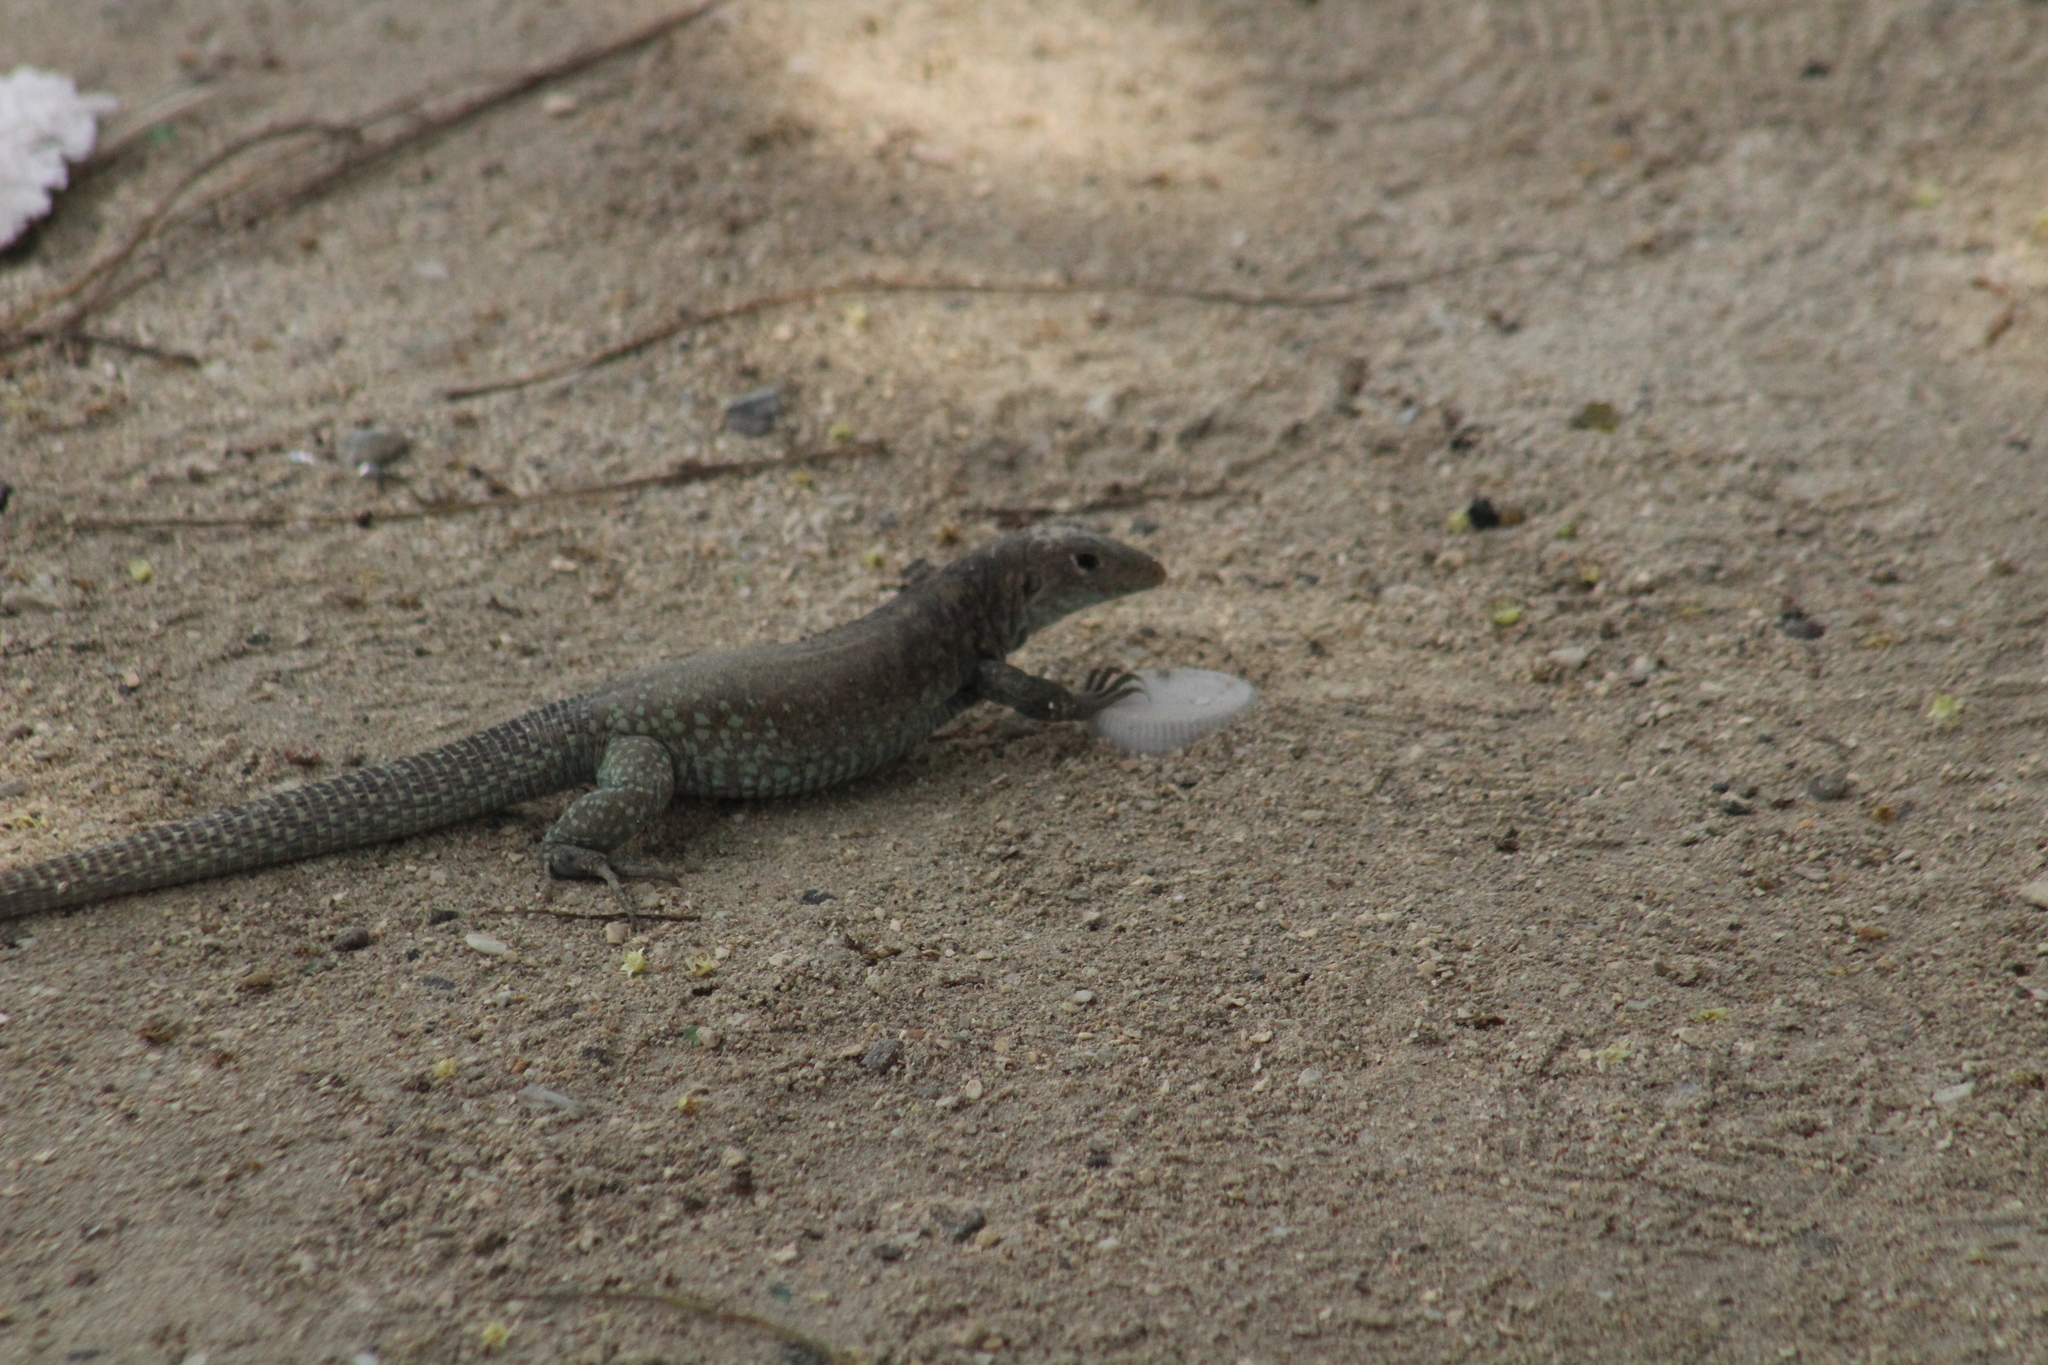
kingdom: Animalia
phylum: Chordata
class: Squamata
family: Teiidae
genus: Pholidoscelis
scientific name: Pholidoscelis plei
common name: Anguilla bank ameiva
